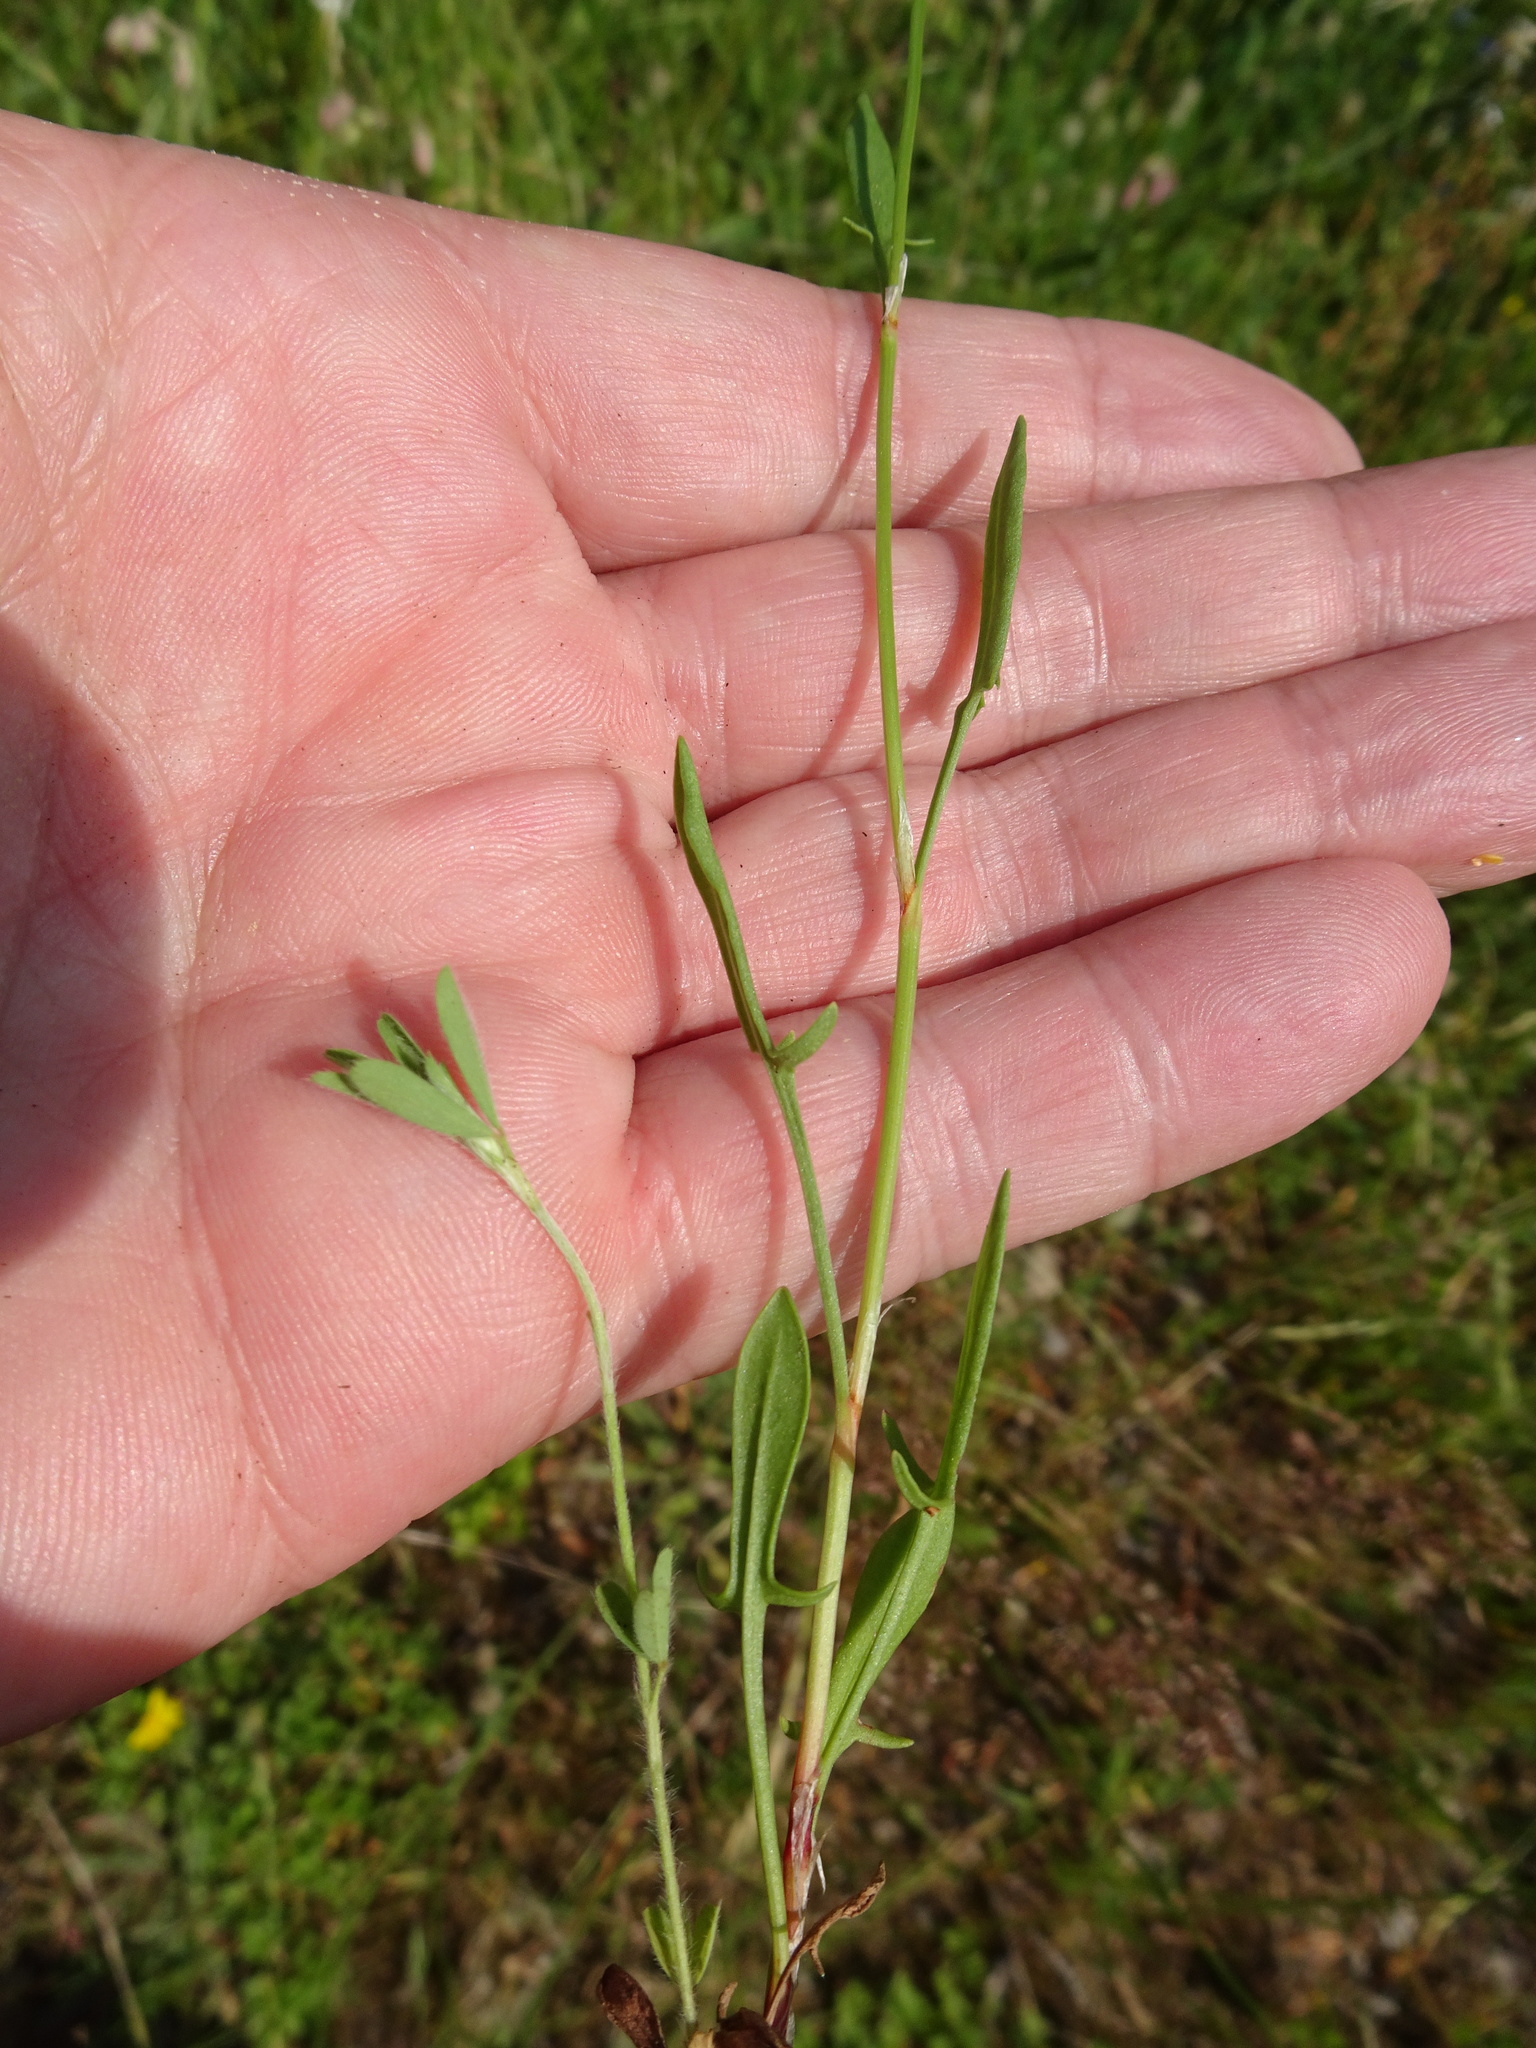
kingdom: Plantae
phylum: Tracheophyta
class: Magnoliopsida
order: Caryophyllales
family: Polygonaceae
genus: Rumex
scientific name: Rumex acetosella
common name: Common sheep sorrel
